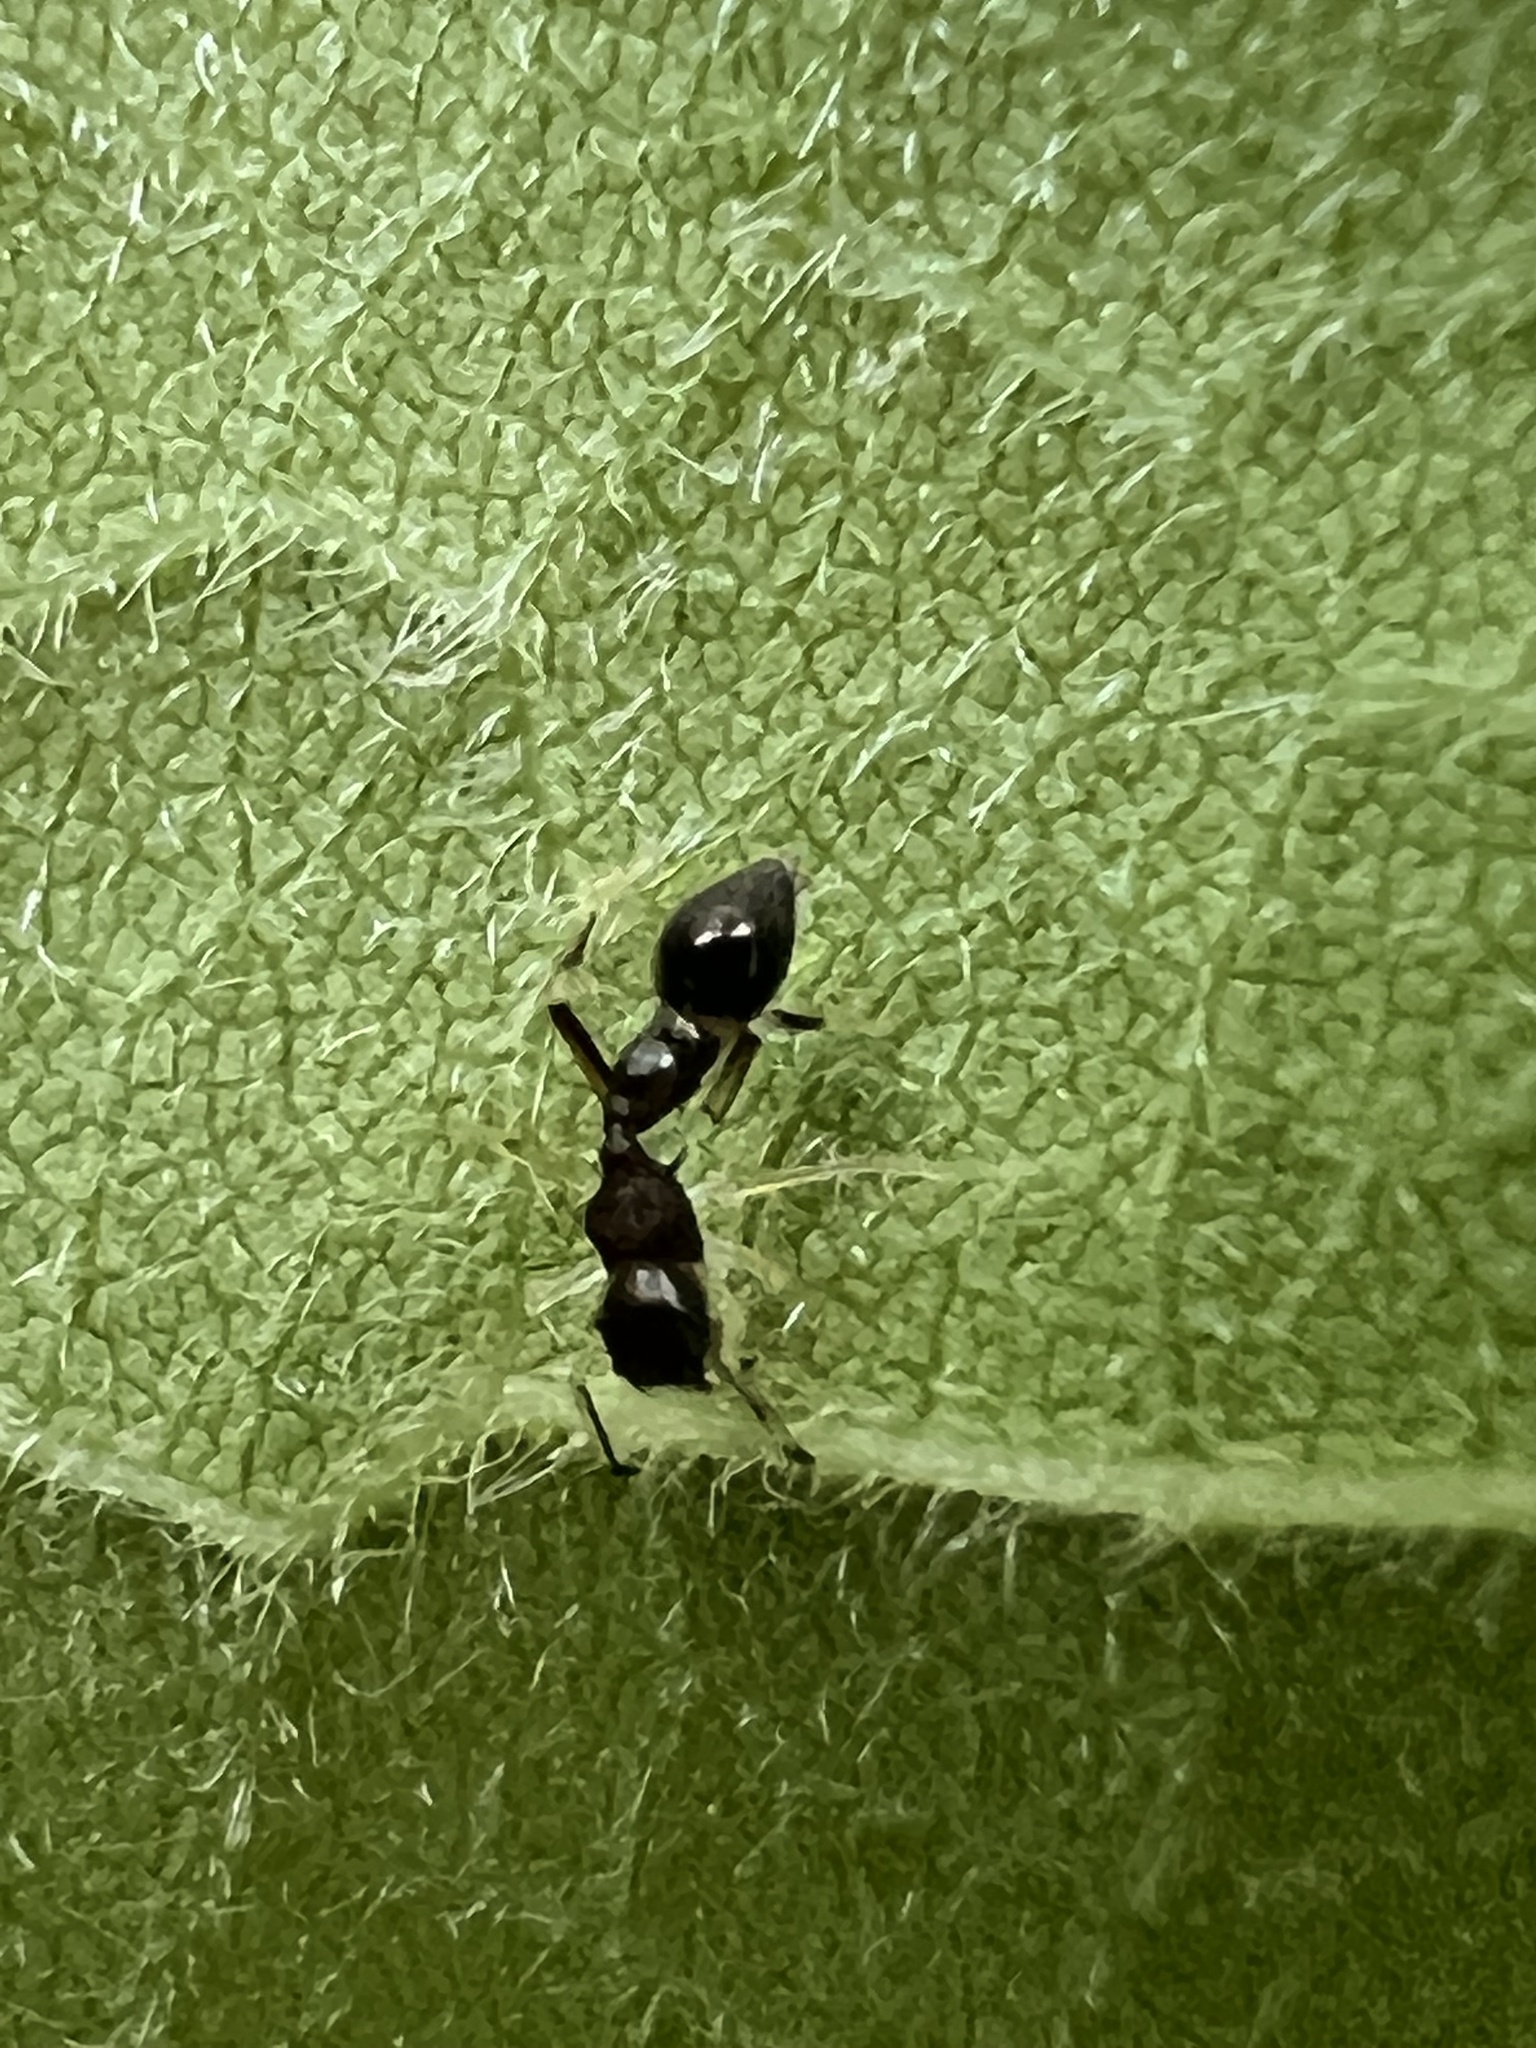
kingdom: Animalia
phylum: Arthropoda
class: Arachnida
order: Araneae
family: Salticidae
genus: Synemosyna
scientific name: Synemosyna formica
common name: Slender ant-mimic jumping spider
